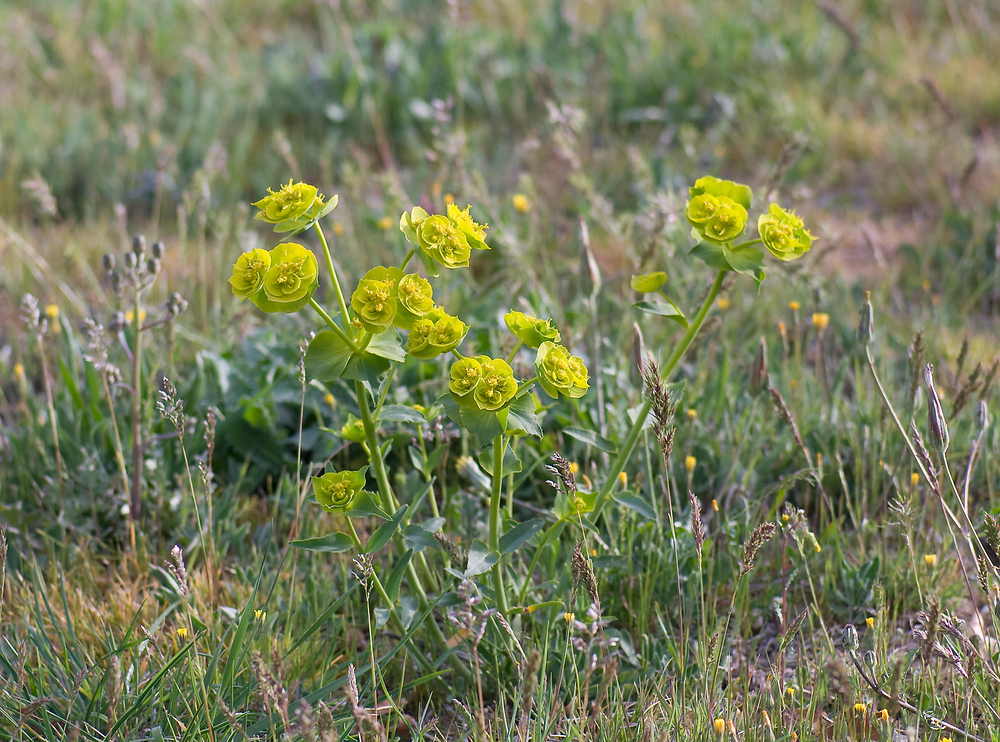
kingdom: Plantae
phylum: Tracheophyta
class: Magnoliopsida
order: Malpighiales
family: Euphorbiaceae
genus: Euphorbia
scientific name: Euphorbia serrata
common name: Serrate spurge
